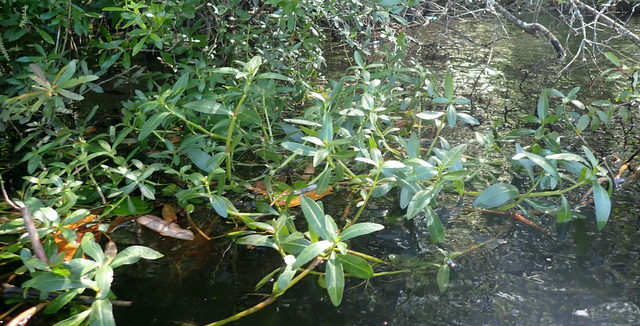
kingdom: Plantae
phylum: Tracheophyta
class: Magnoliopsida
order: Caryophyllales
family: Amaranthaceae
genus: Alternanthera
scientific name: Alternanthera philoxeroides
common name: Alligatorweed
